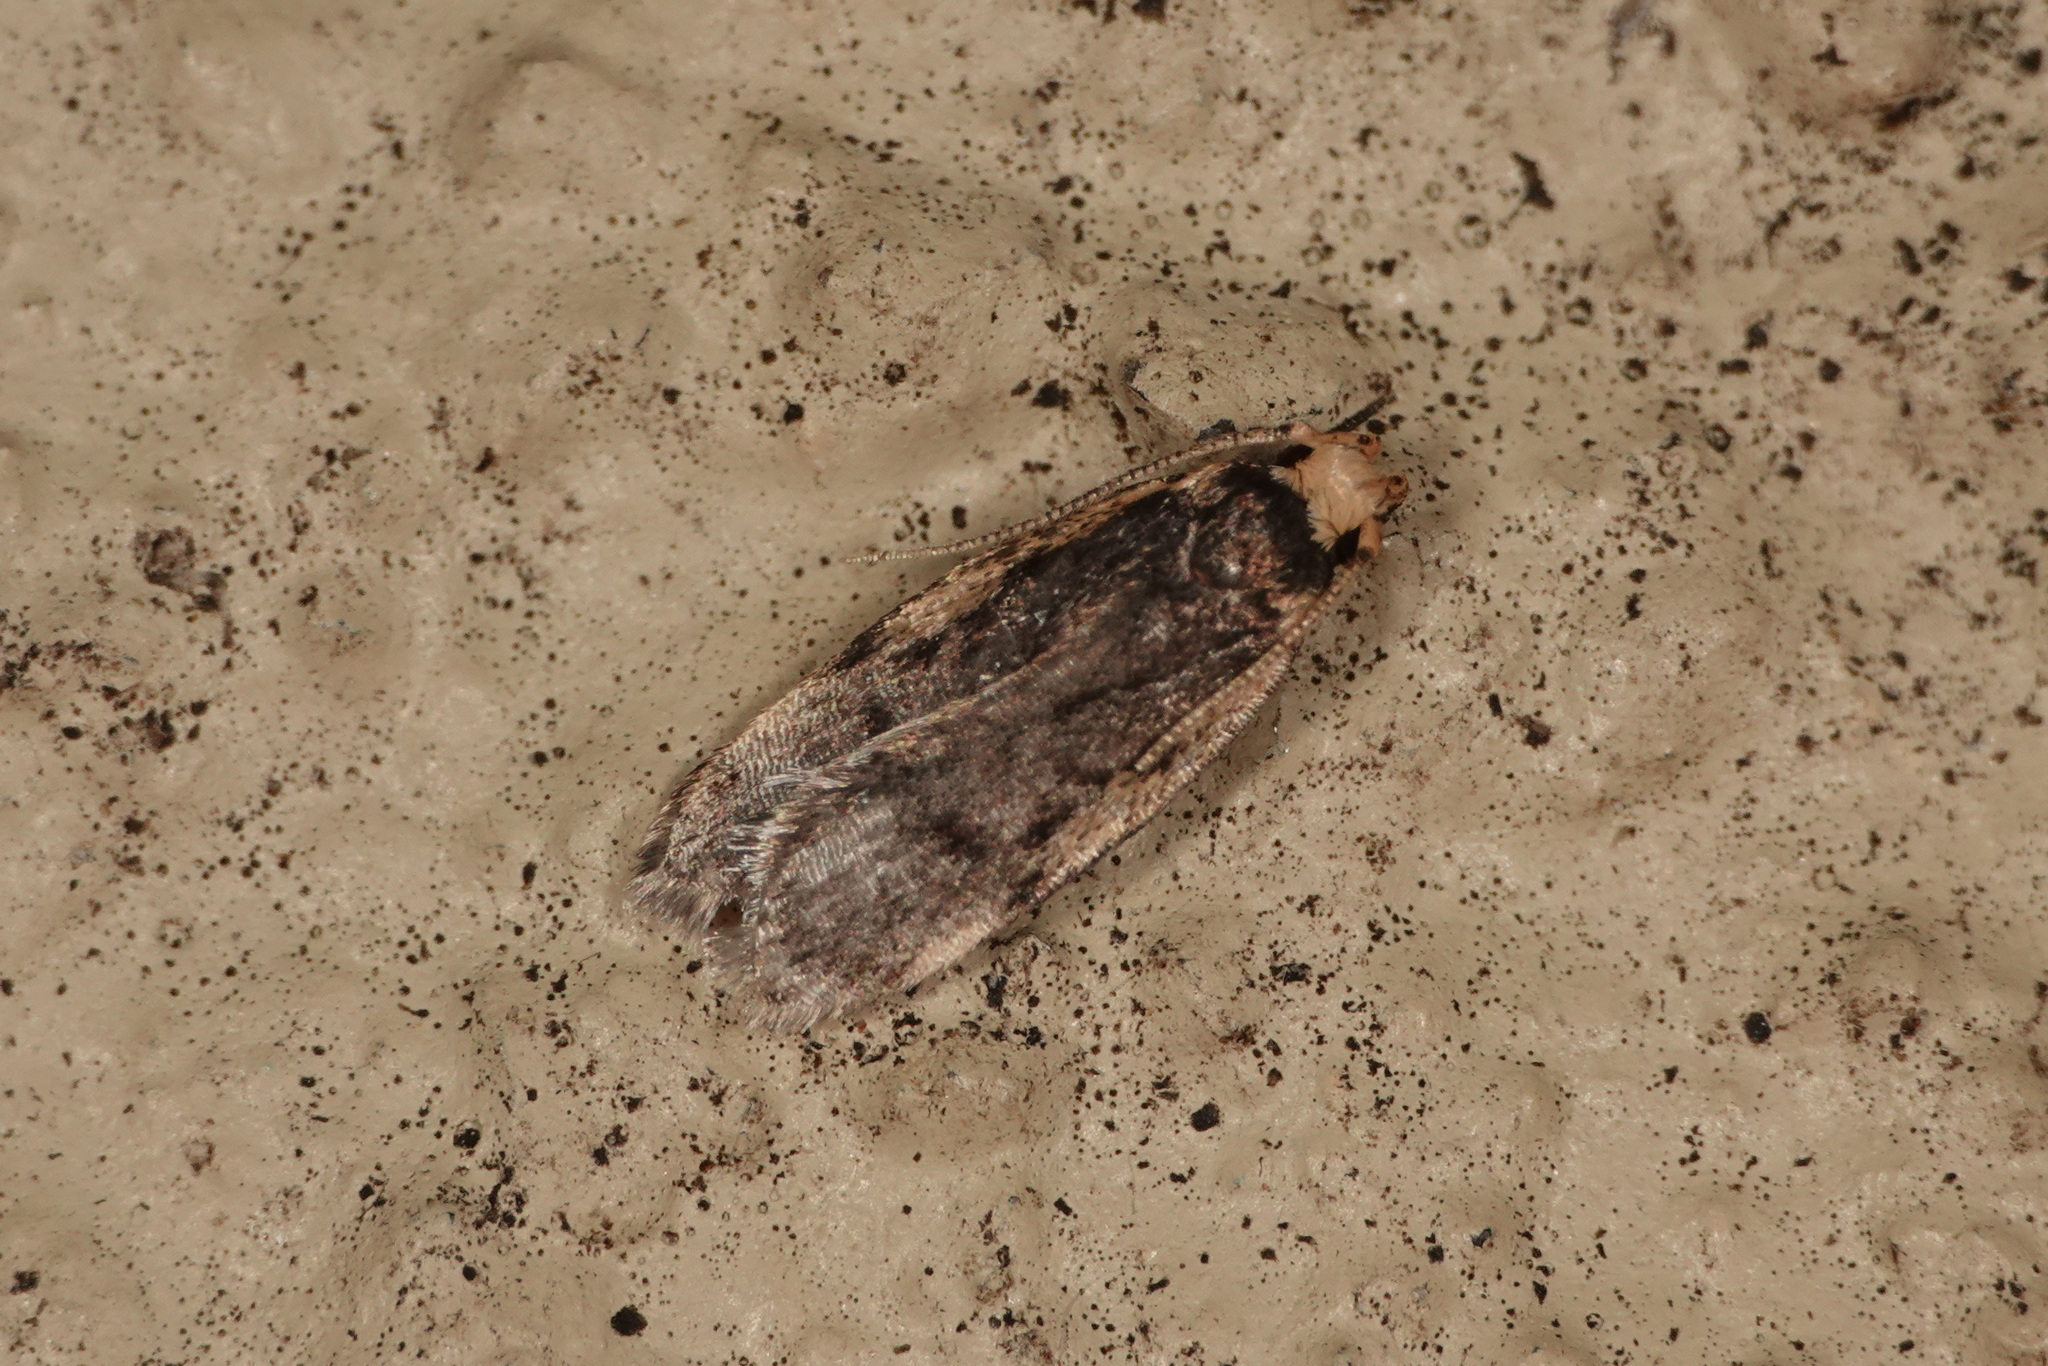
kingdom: Animalia
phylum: Arthropoda
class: Insecta
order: Lepidoptera
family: Oecophoridae
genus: Hoplostega
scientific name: Hoplostega ochroma
